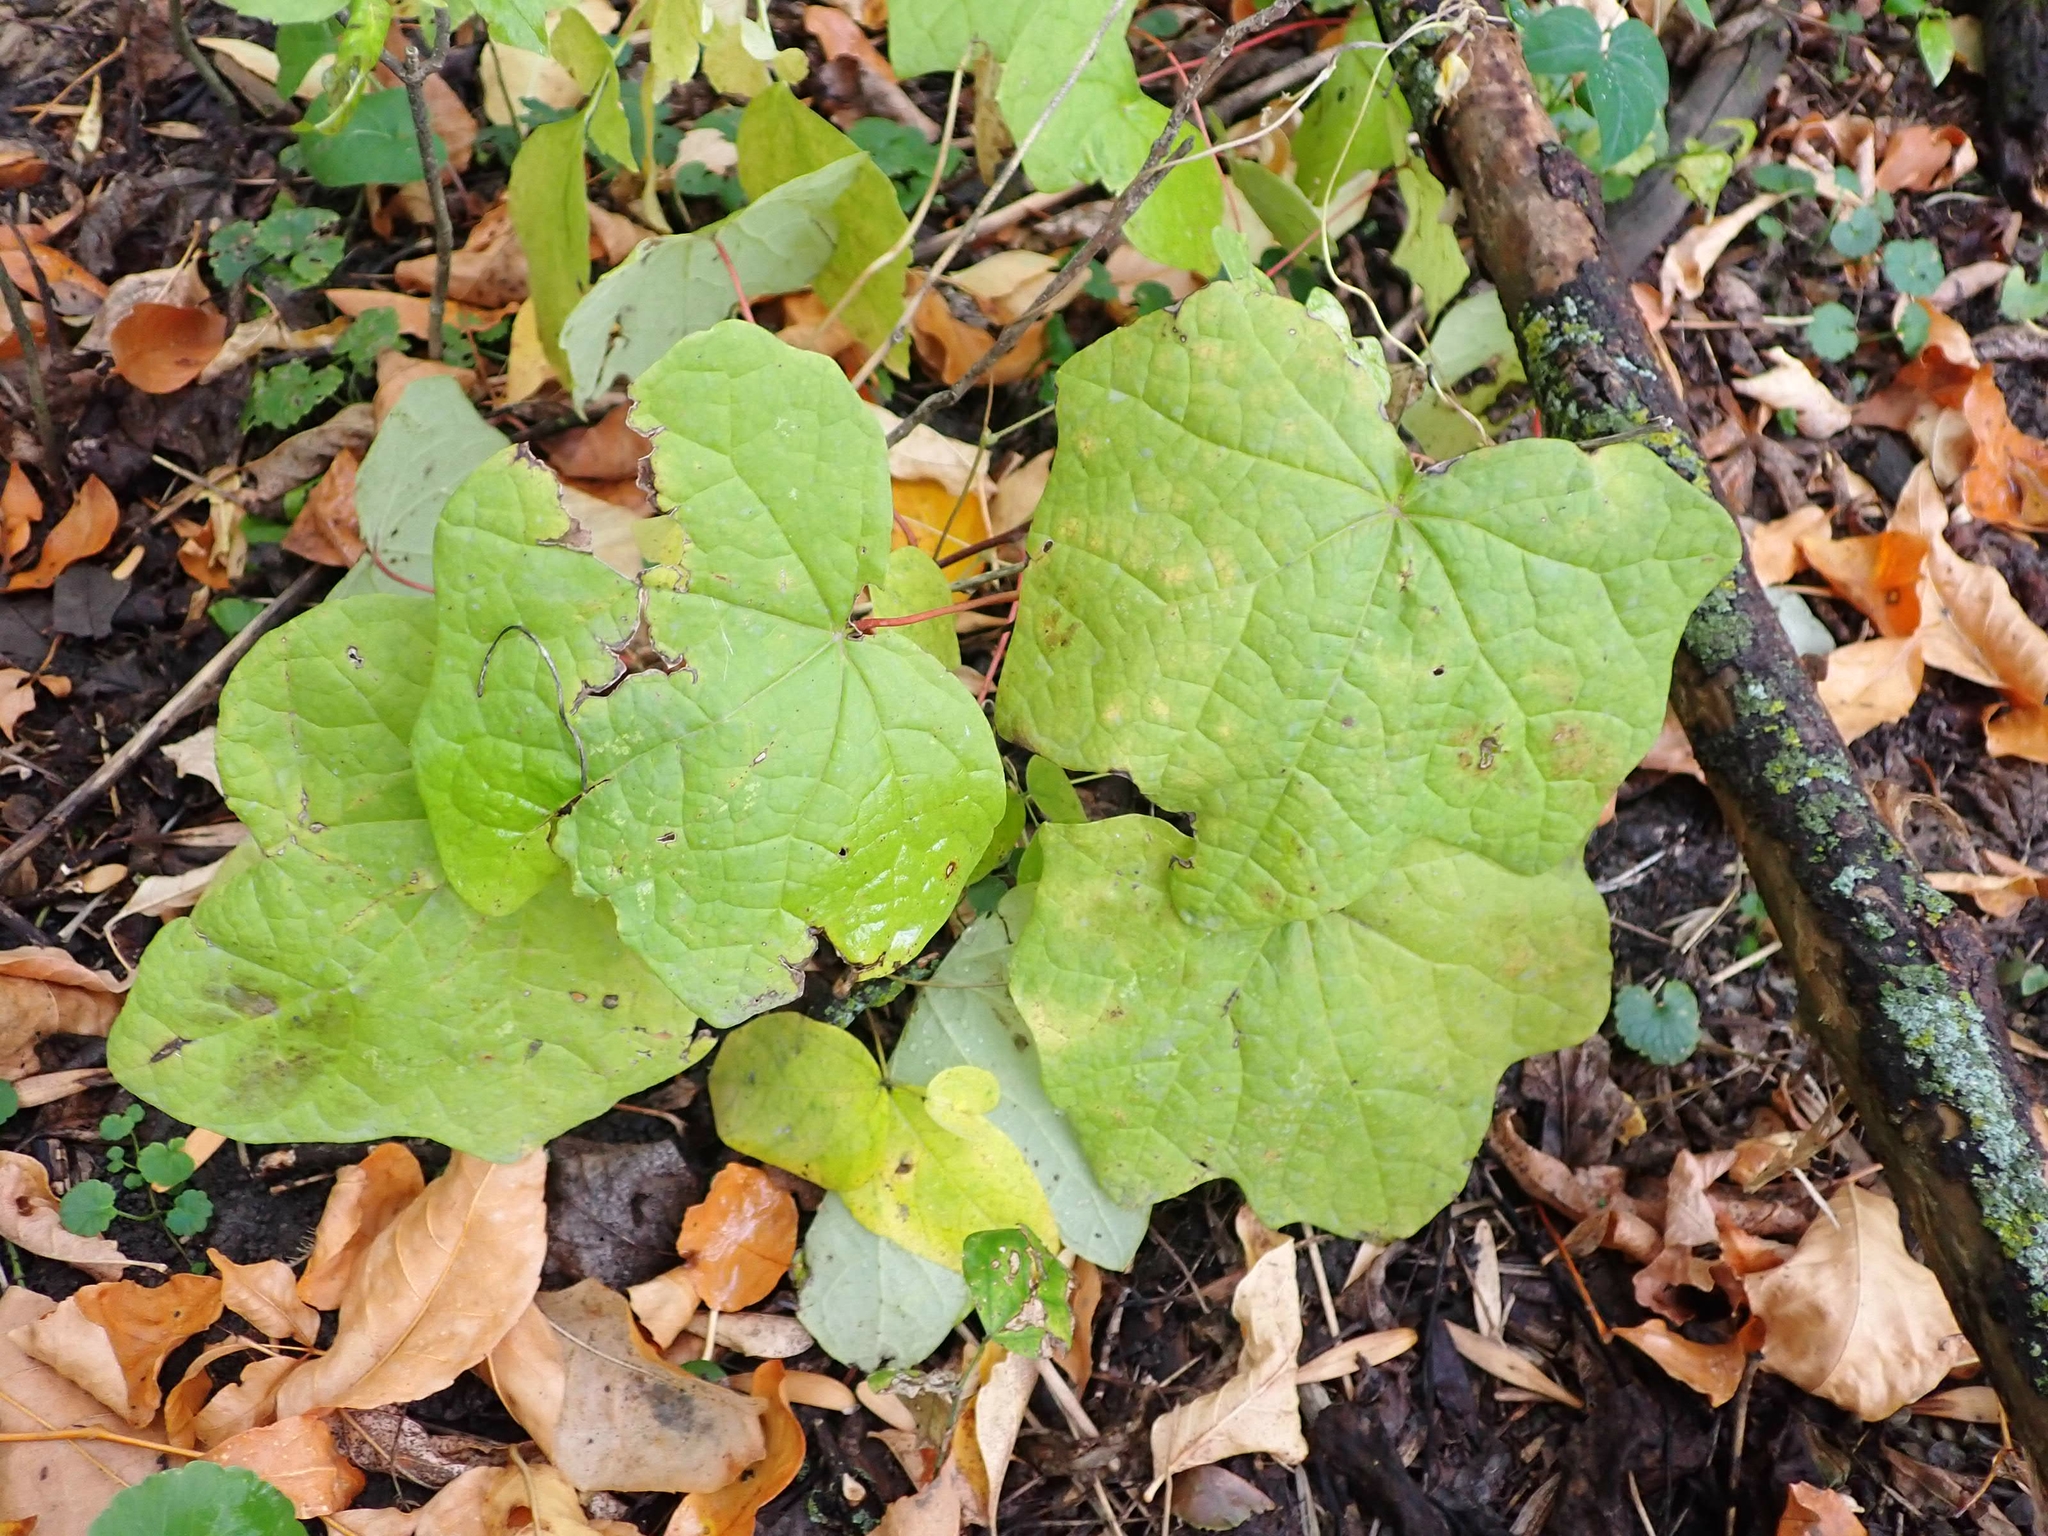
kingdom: Plantae
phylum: Tracheophyta
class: Magnoliopsida
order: Ranunculales
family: Menispermaceae
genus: Menispermum
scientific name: Menispermum canadense
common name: Moonseed
